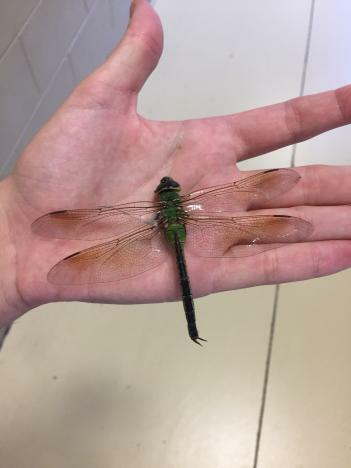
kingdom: Animalia
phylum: Arthropoda
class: Insecta
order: Odonata
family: Aeshnidae
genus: Anax
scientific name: Anax junius
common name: Common green darner
